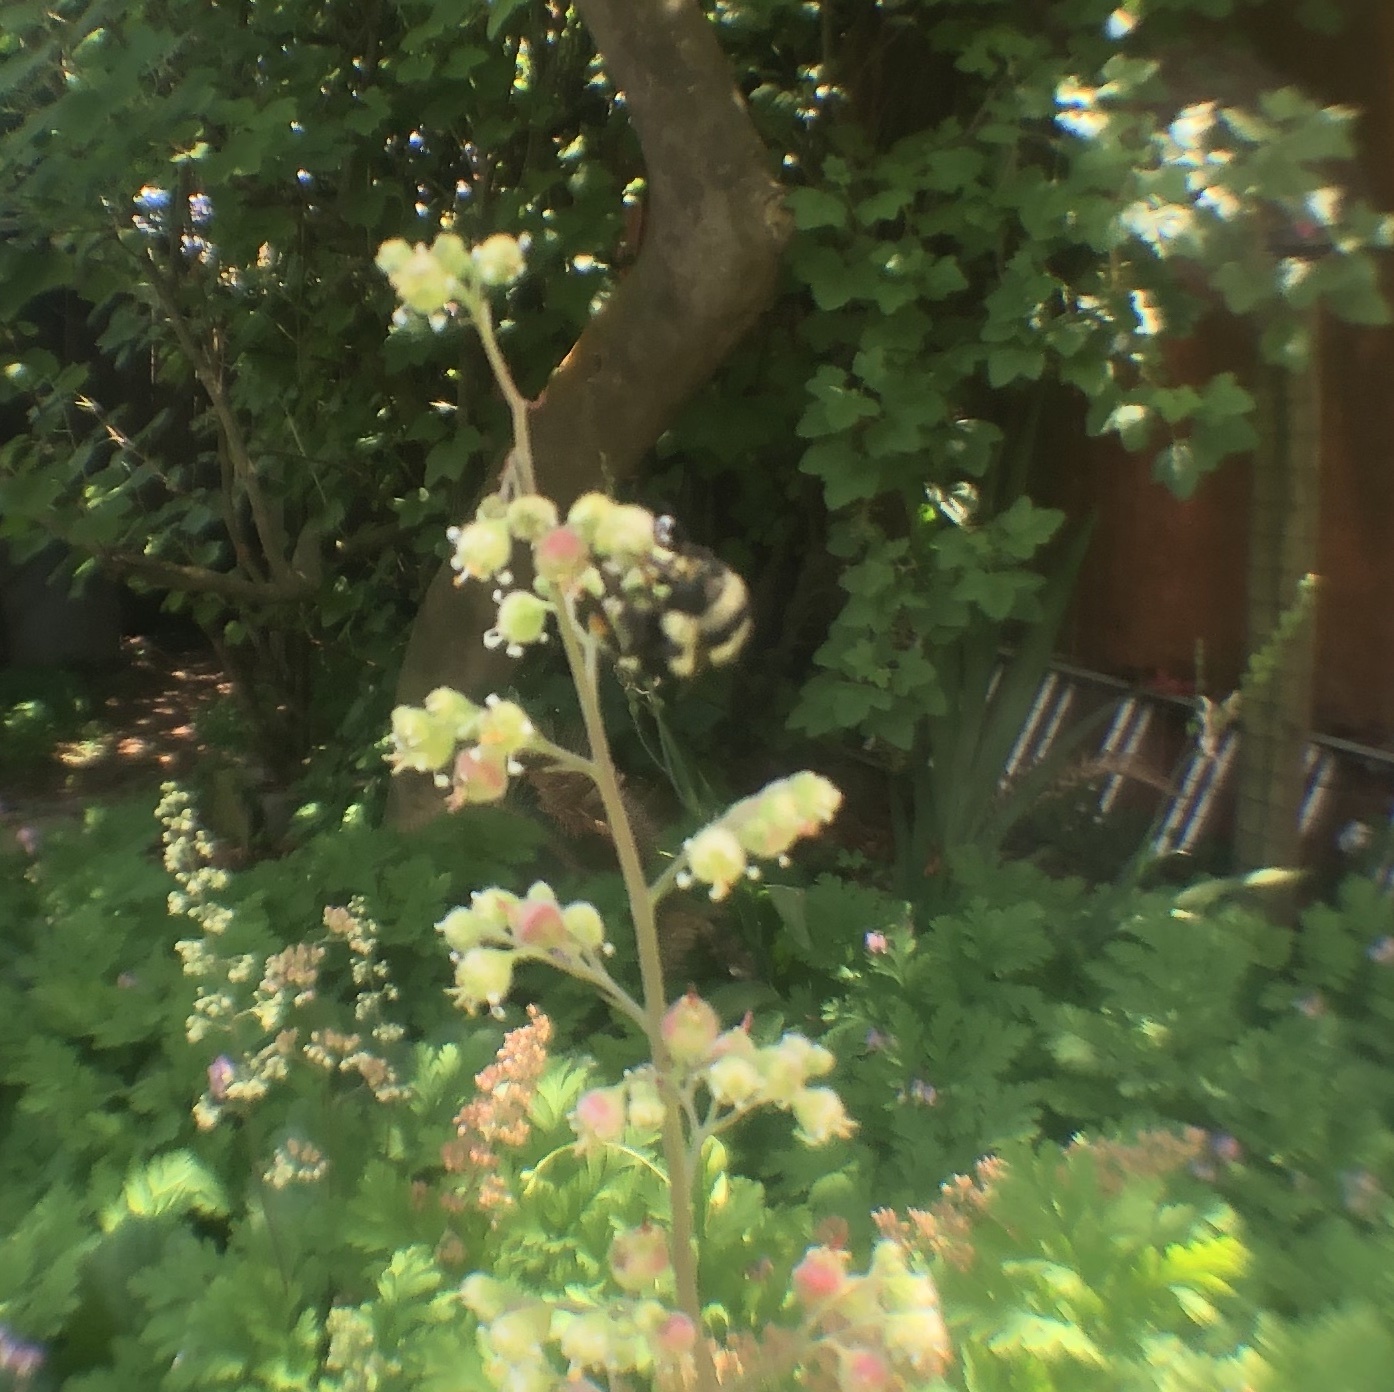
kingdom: Animalia
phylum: Arthropoda
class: Insecta
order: Hymenoptera
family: Apidae
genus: Bombus
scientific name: Bombus melanopygus
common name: Black tail bumble bee
